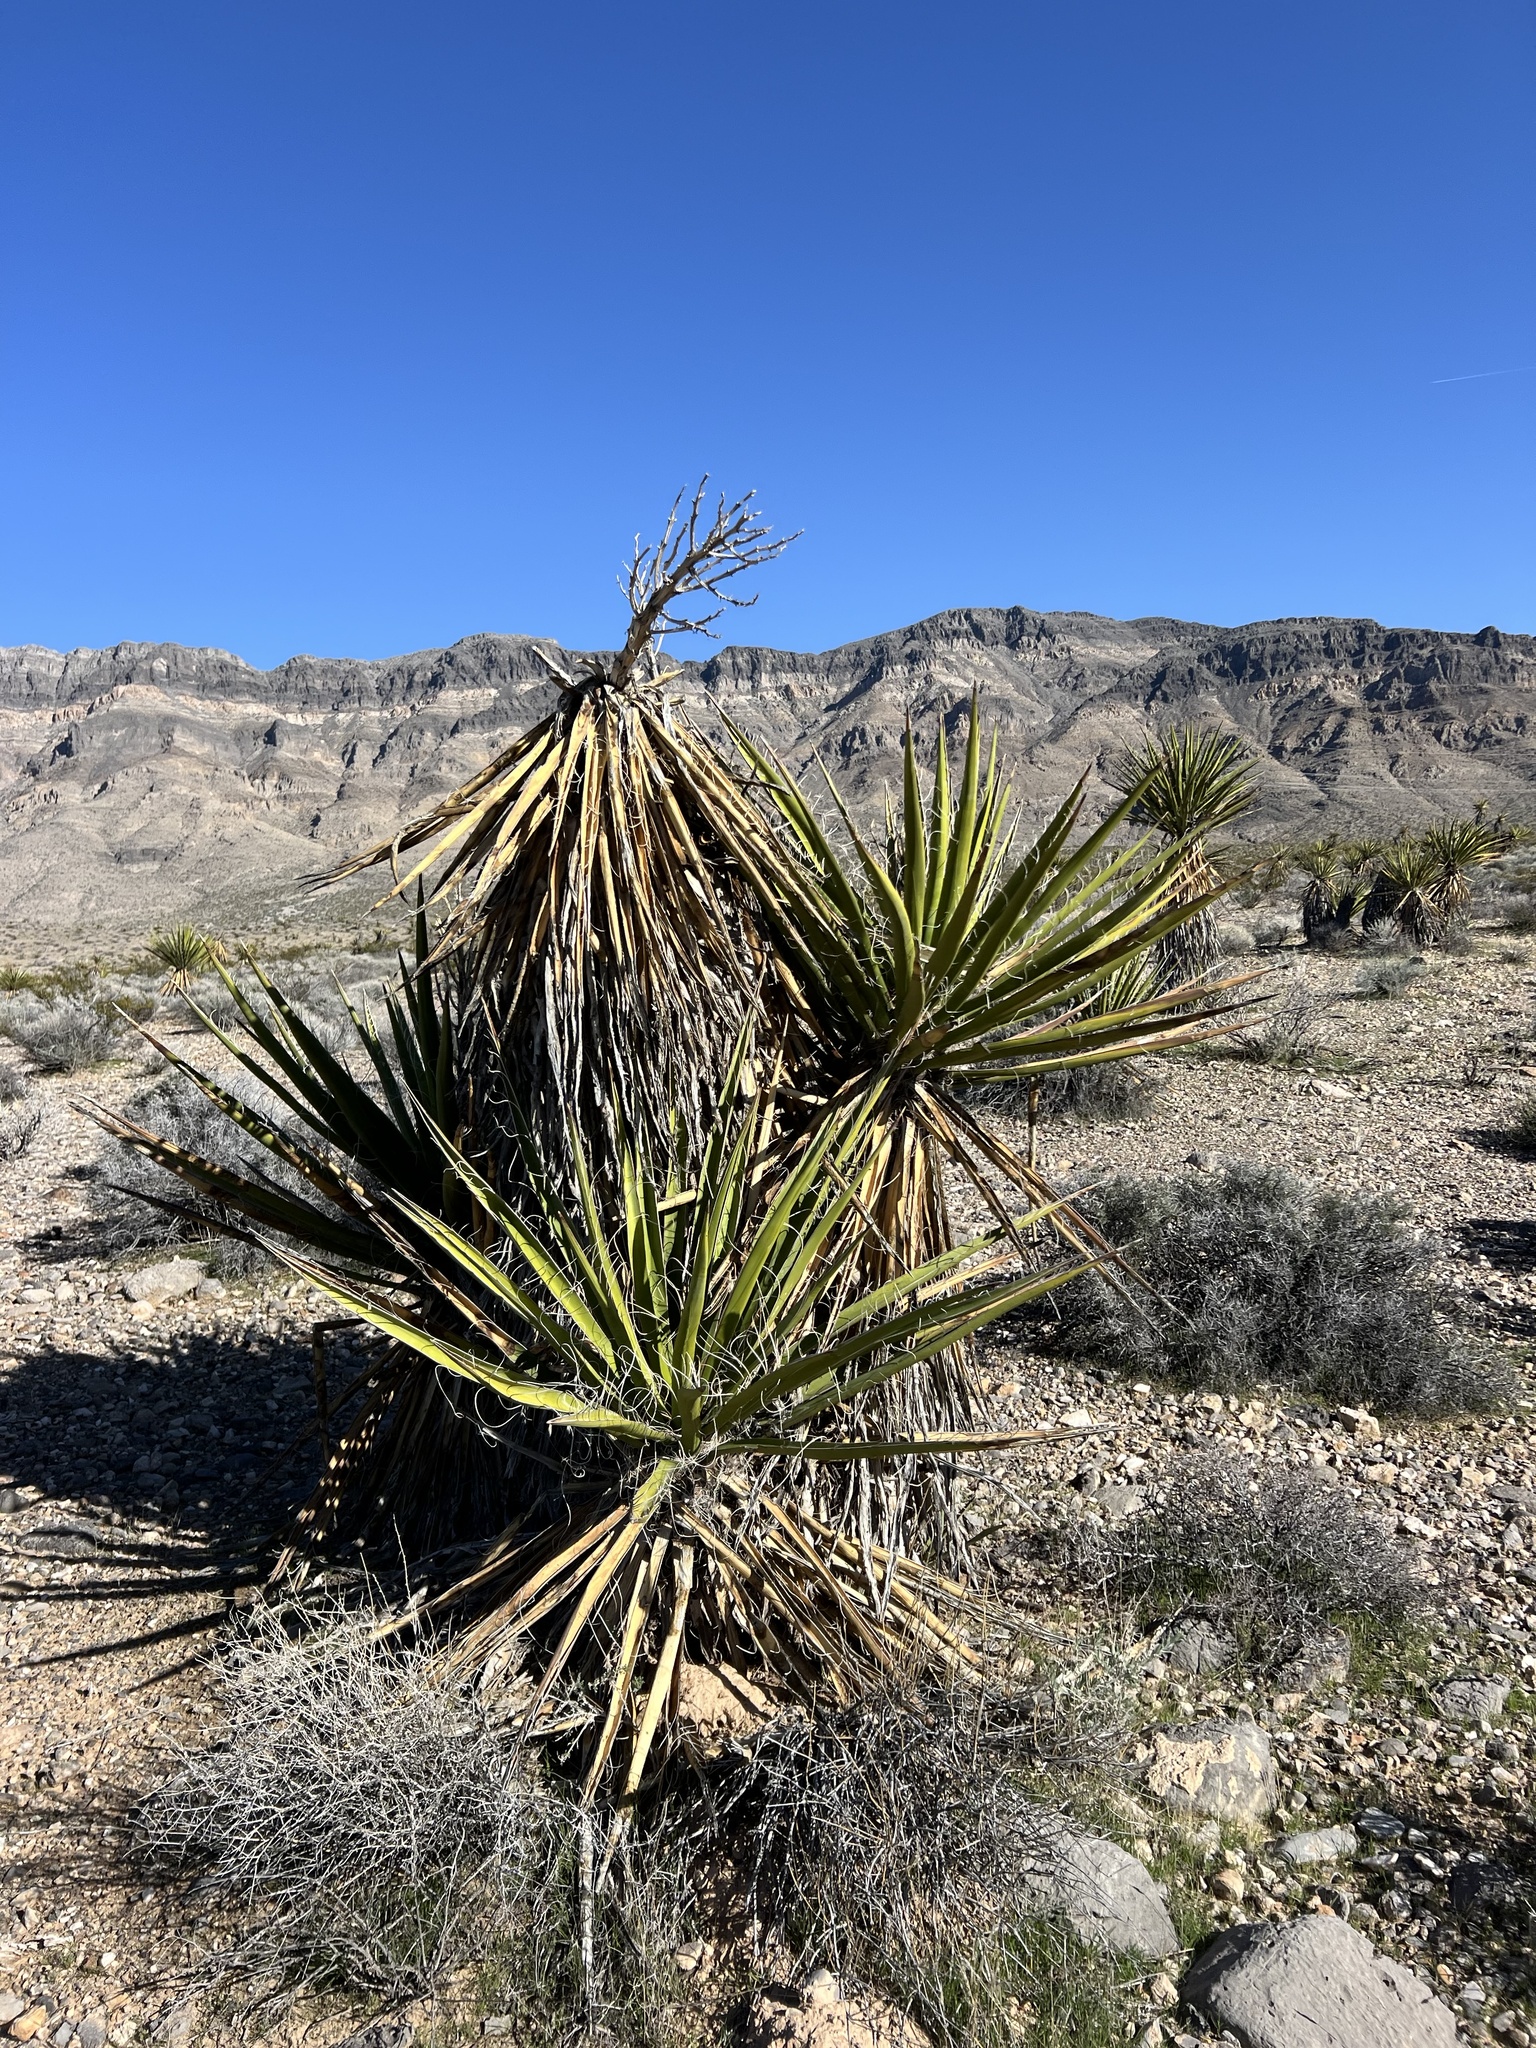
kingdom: Plantae
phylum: Tracheophyta
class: Liliopsida
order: Asparagales
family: Asparagaceae
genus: Yucca
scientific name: Yucca schidigera
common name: Mojave yucca
